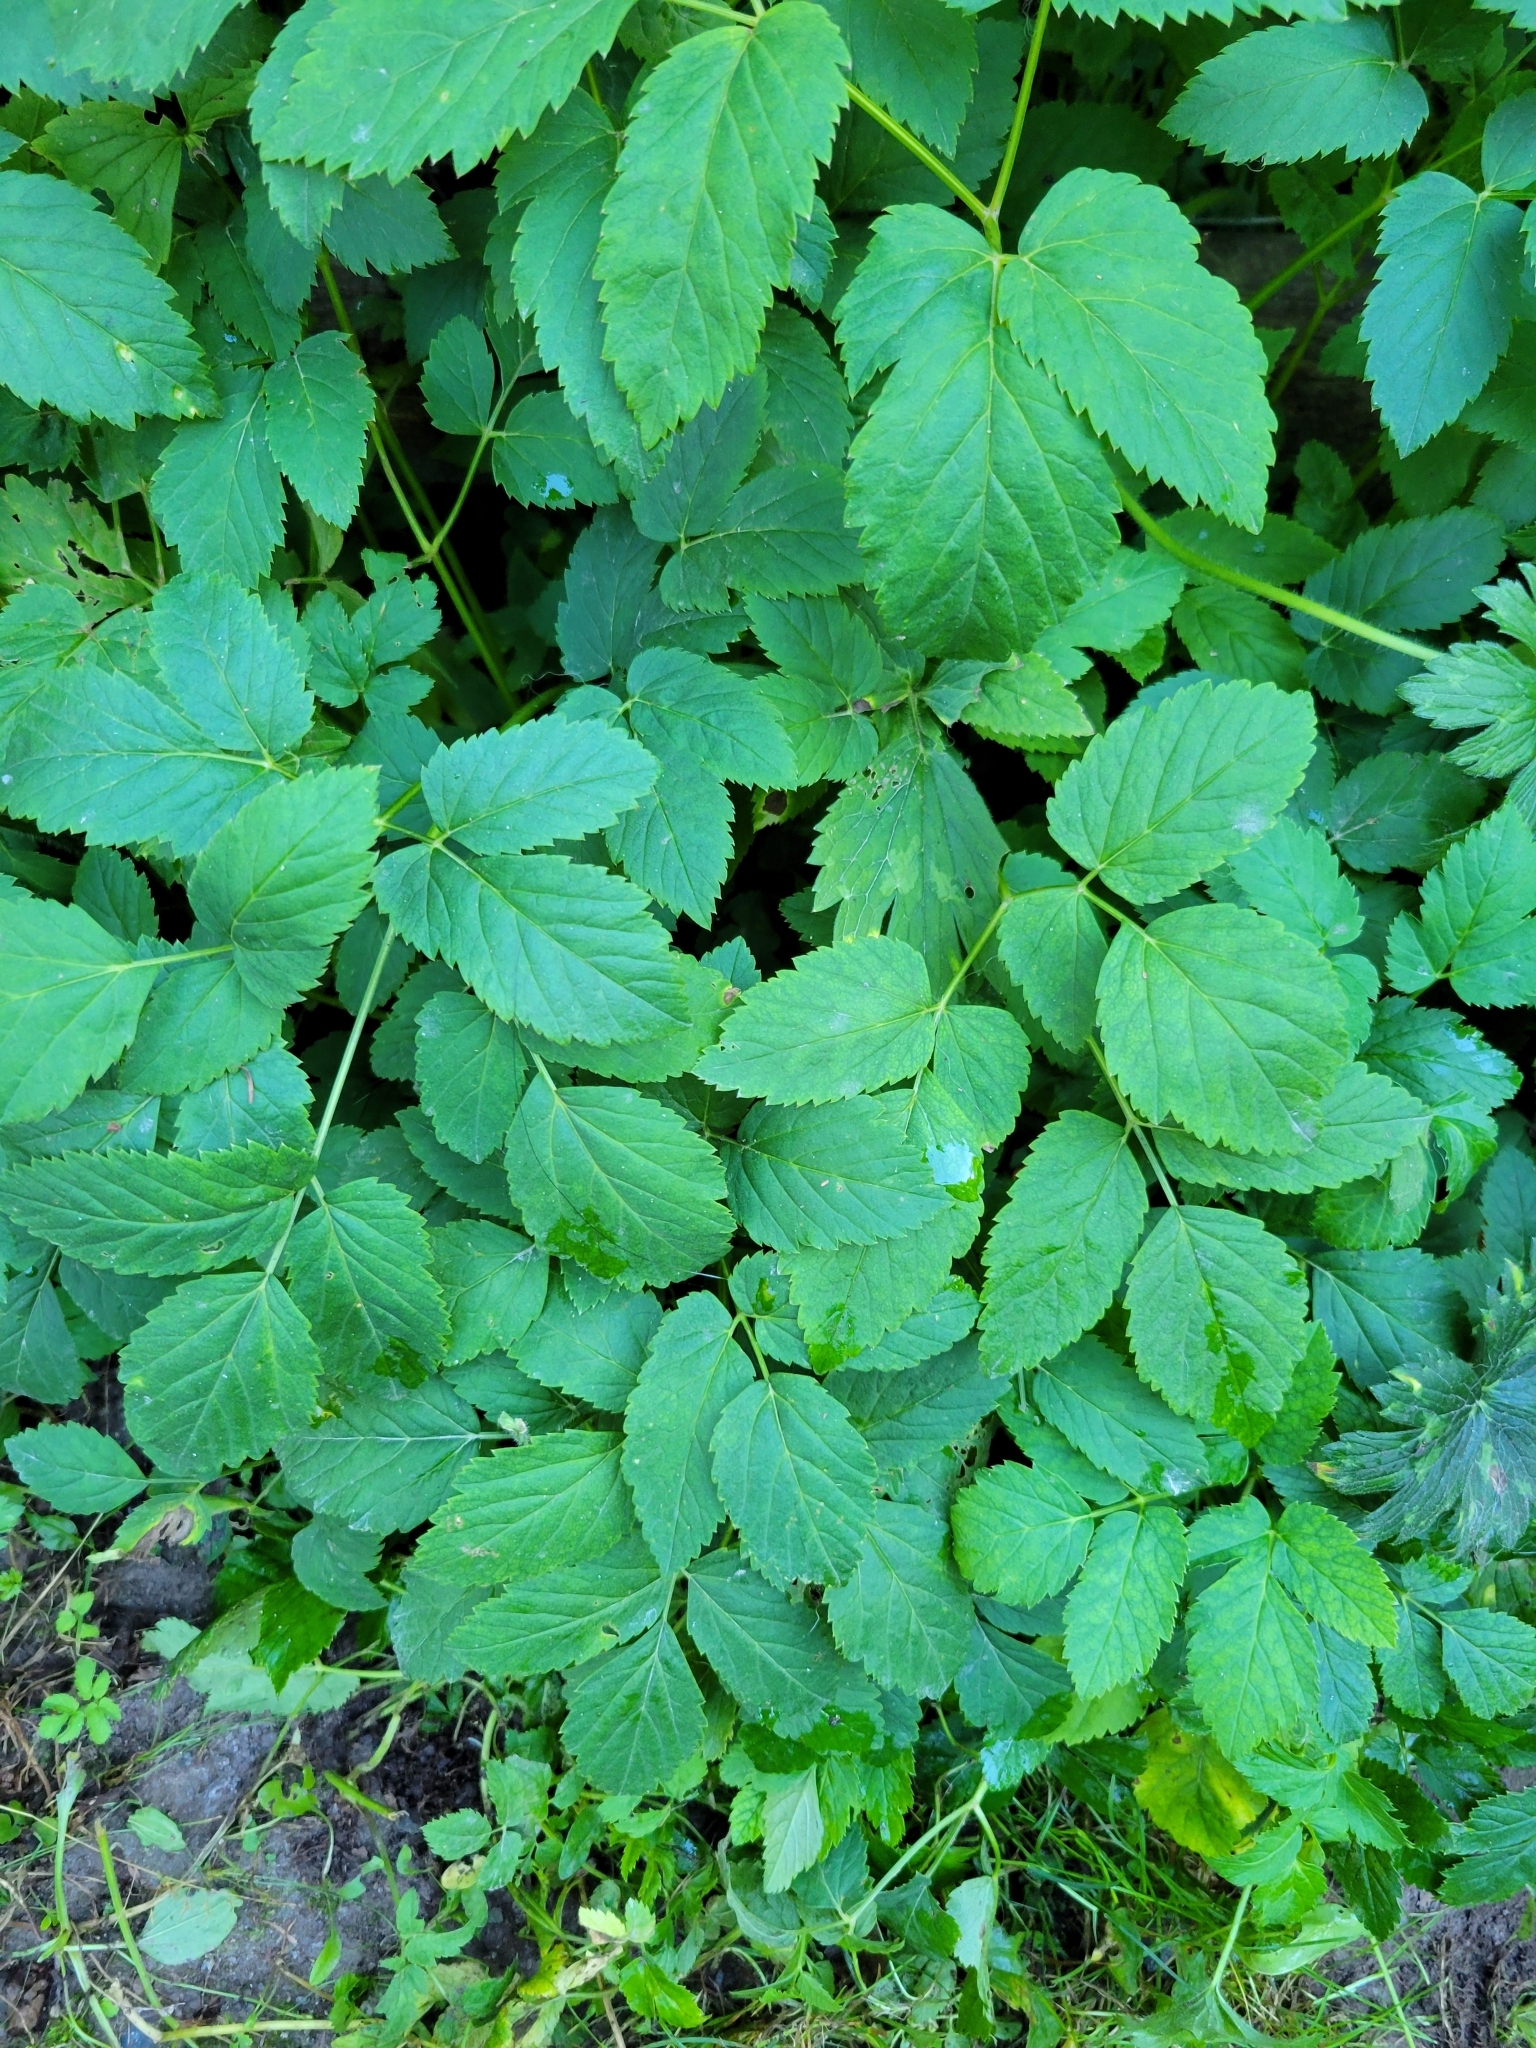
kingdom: Plantae
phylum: Tracheophyta
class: Magnoliopsida
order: Apiales
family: Apiaceae
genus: Aegopodium
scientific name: Aegopodium podagraria
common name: Ground-elder
